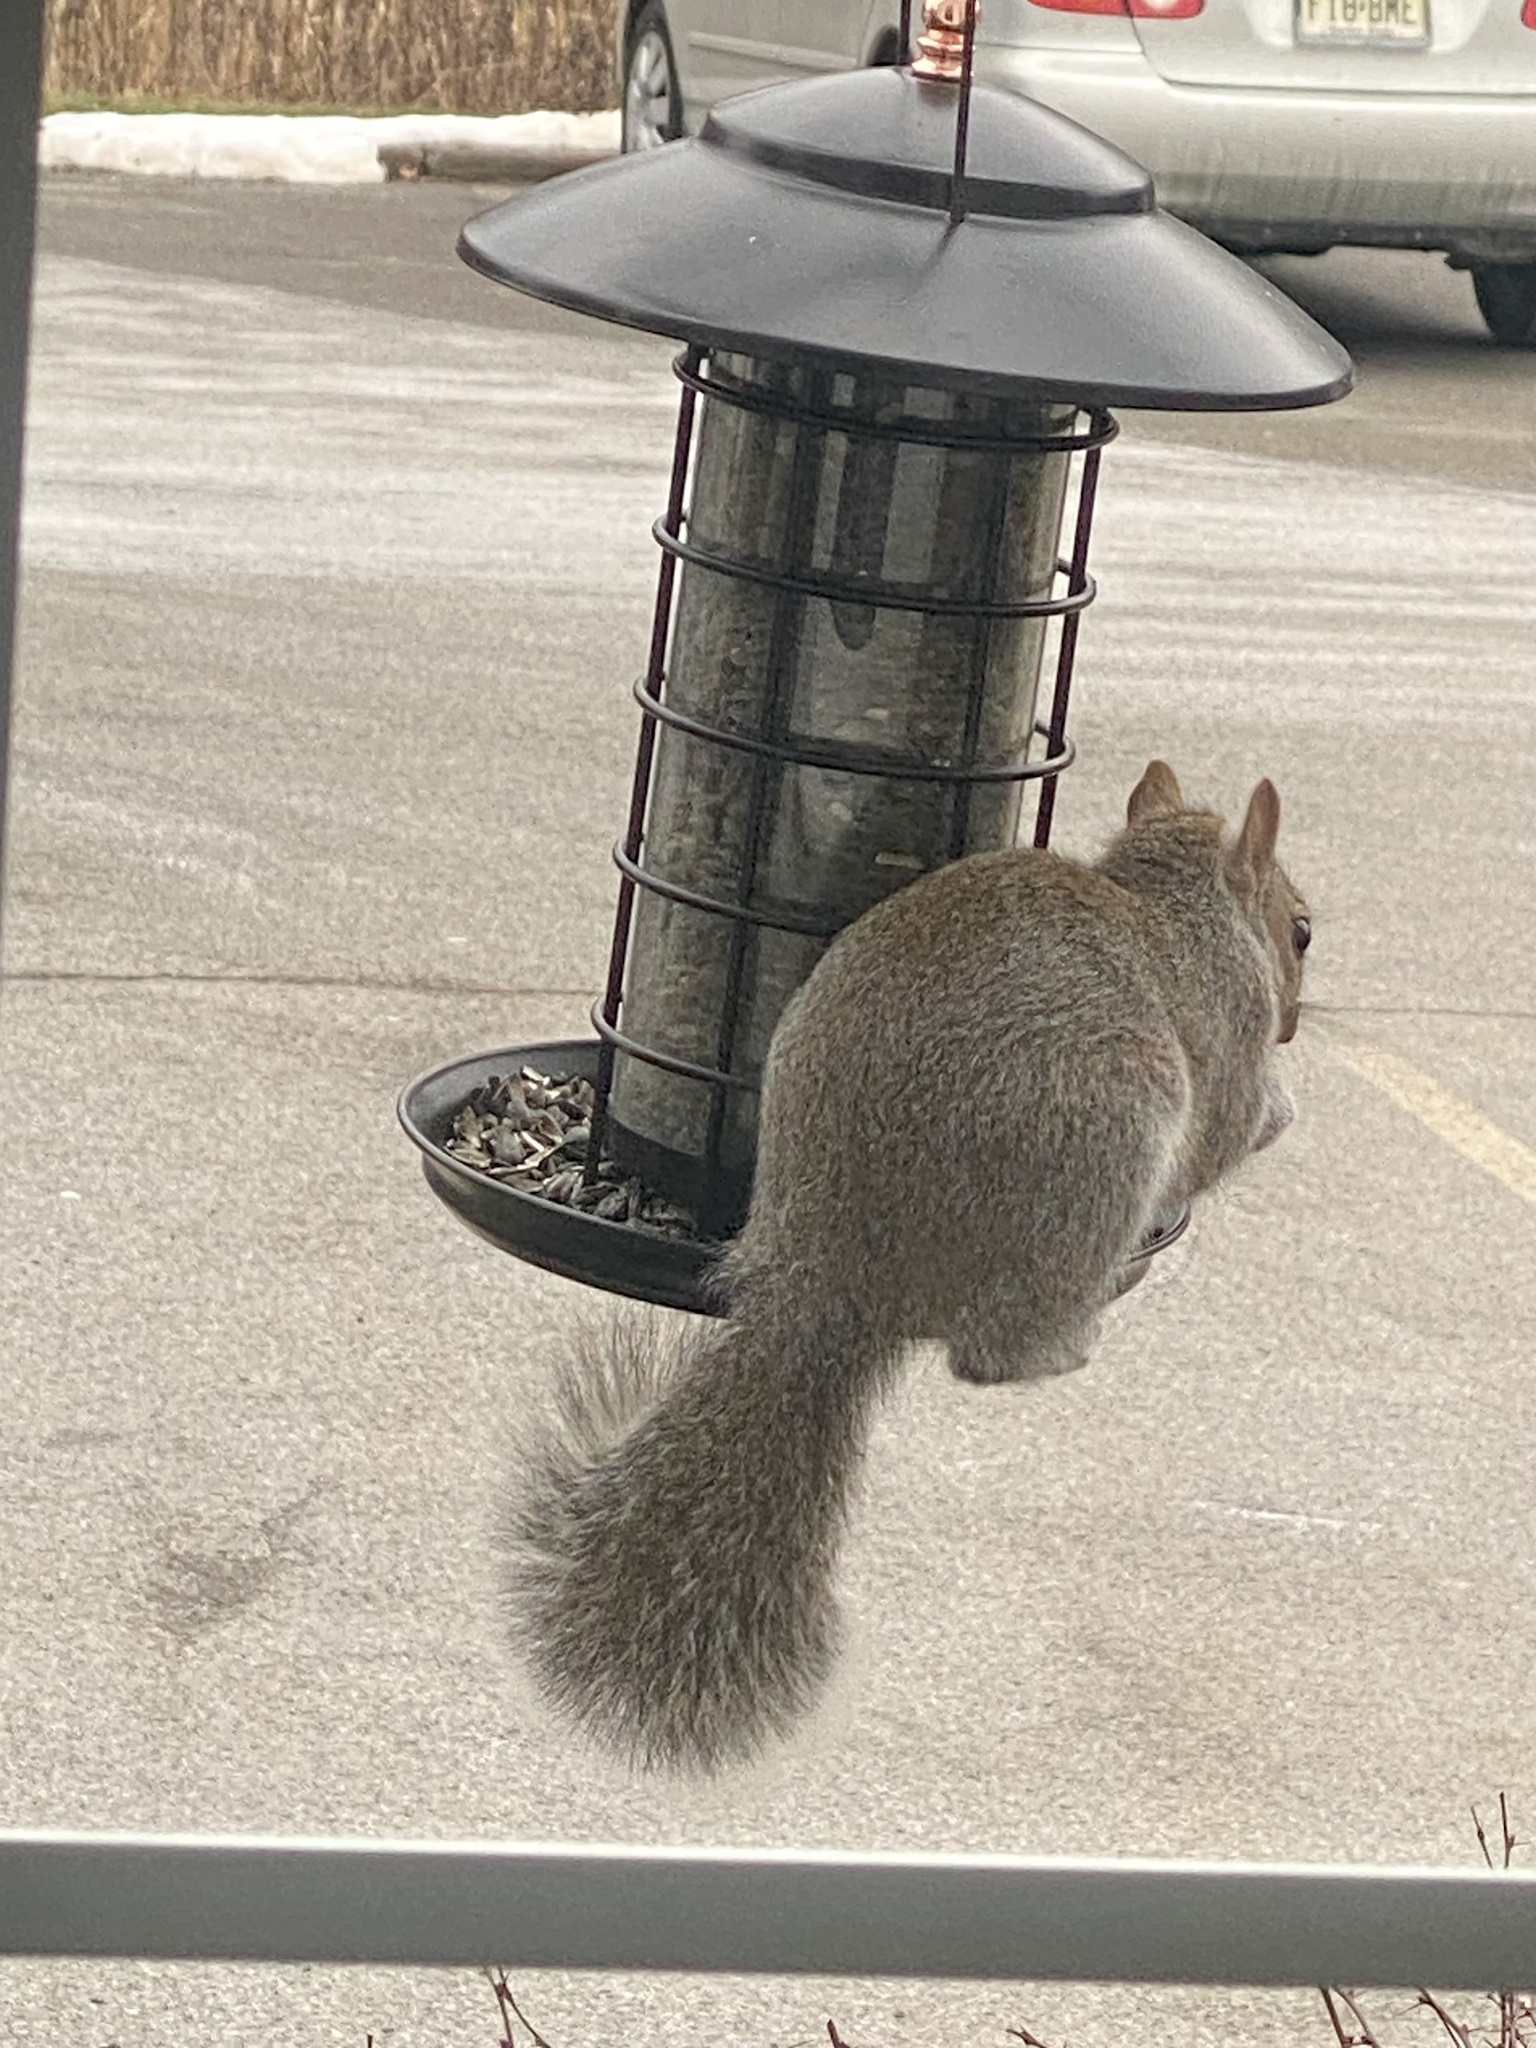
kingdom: Animalia
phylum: Chordata
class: Mammalia
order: Rodentia
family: Sciuridae
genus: Sciurus
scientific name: Sciurus carolinensis
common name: Eastern gray squirrel
